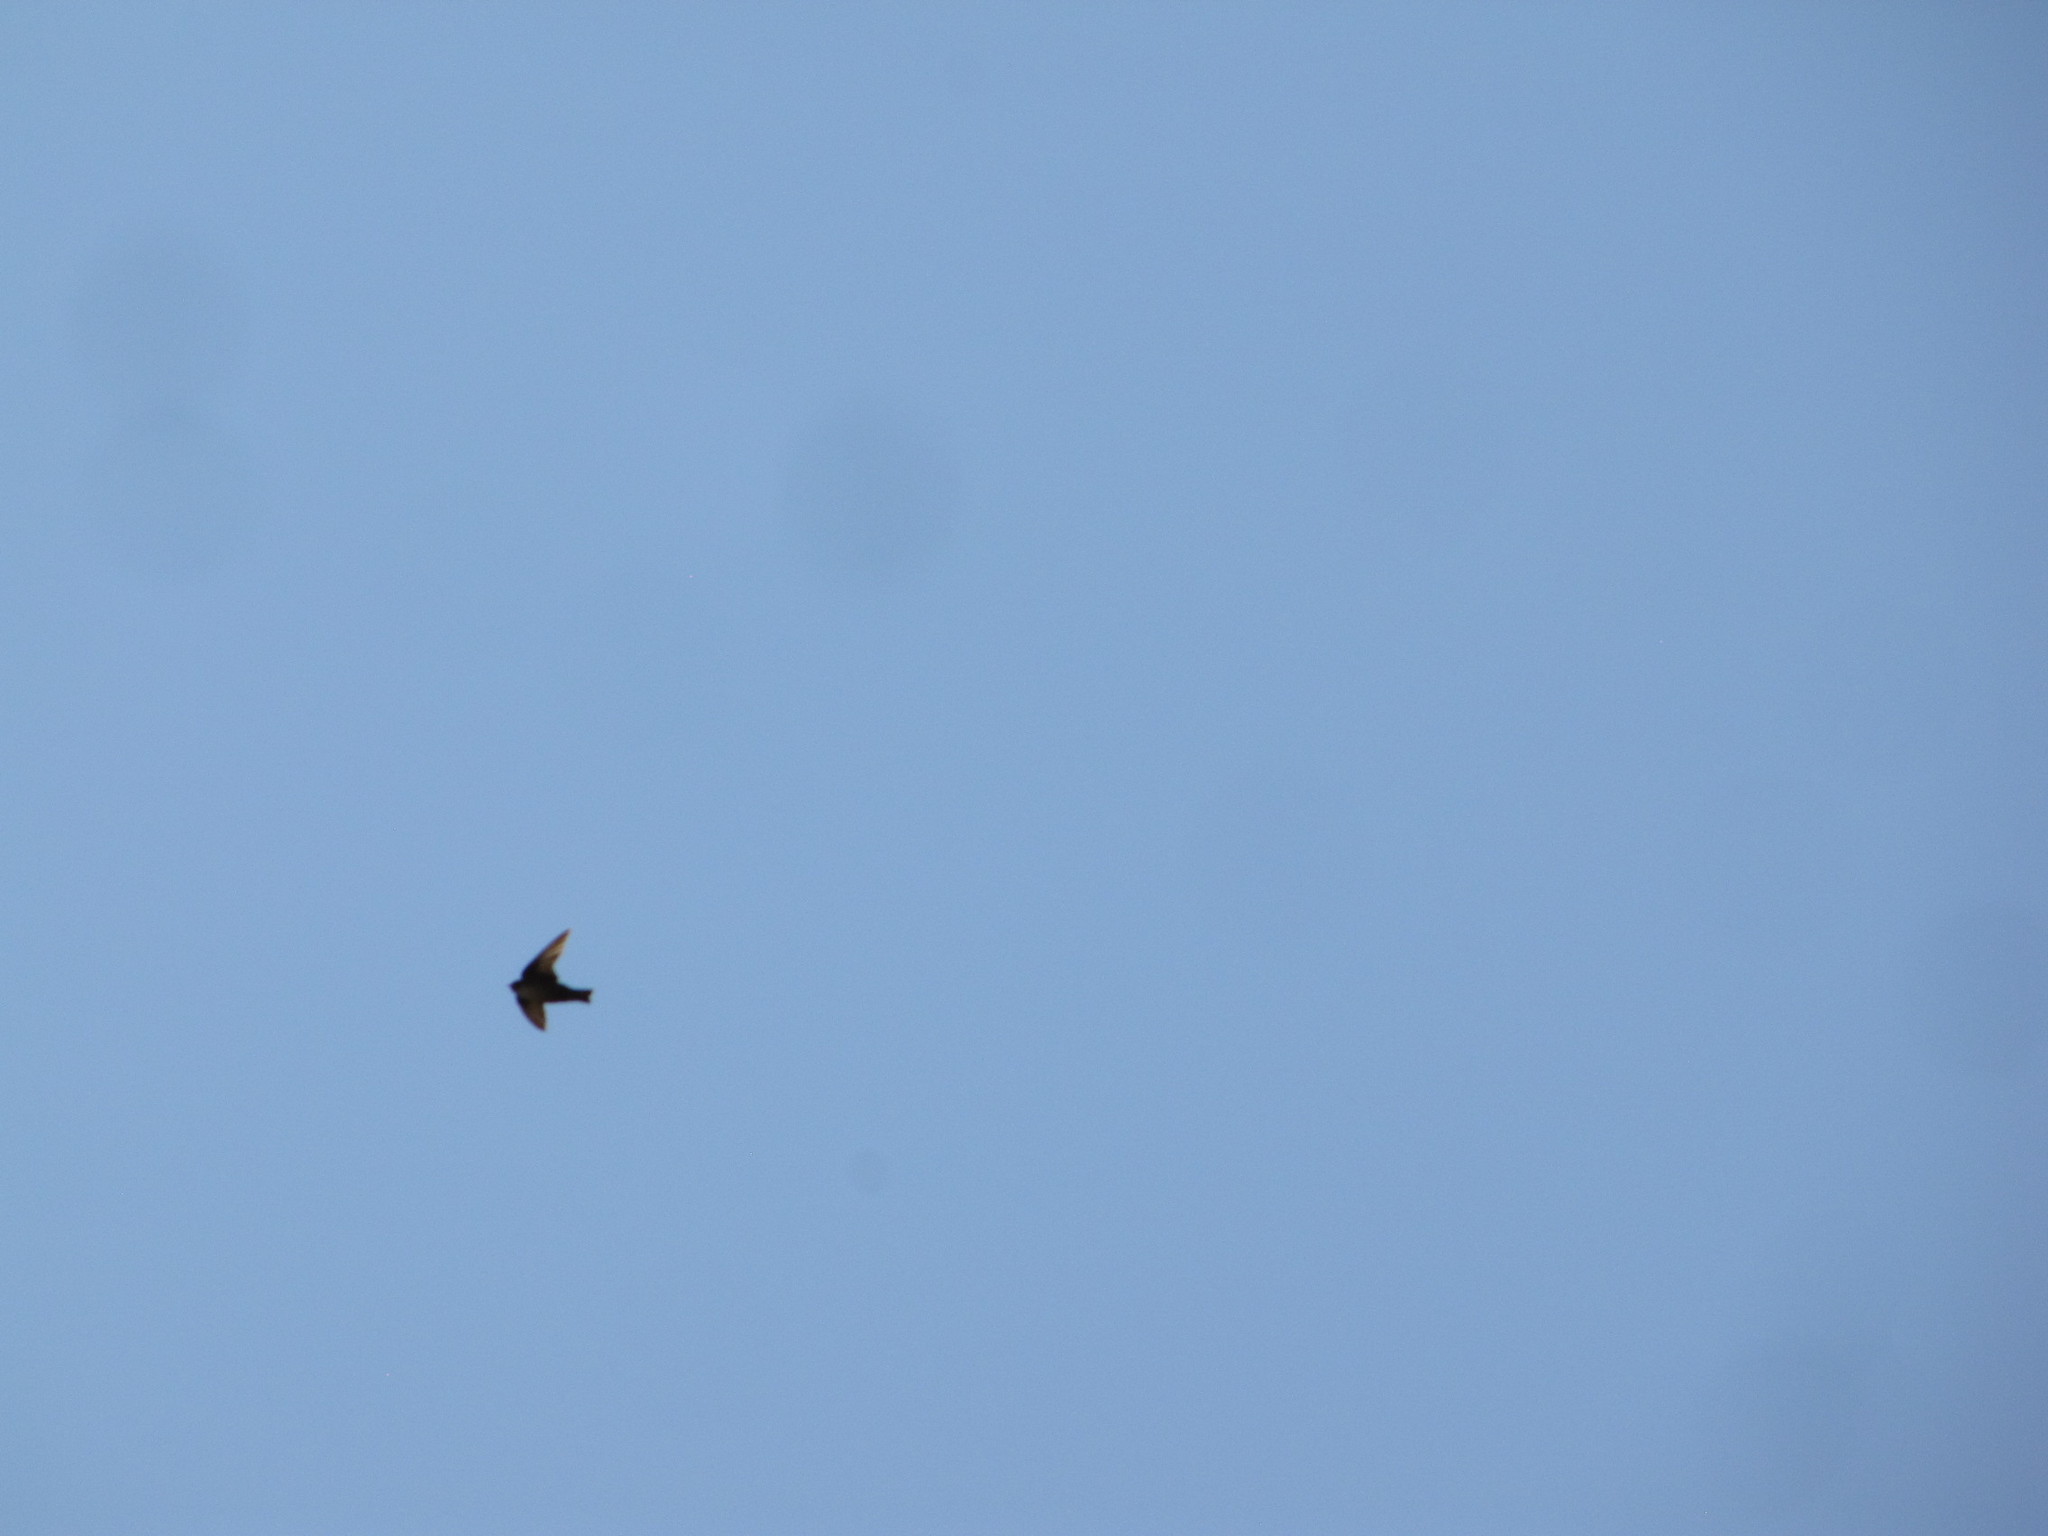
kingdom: Animalia
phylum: Chordata
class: Aves
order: Passeriformes
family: Hirundinidae
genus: Ptyonoprogne
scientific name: Ptyonoprogne rupestris
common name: Eurasian crag martin
